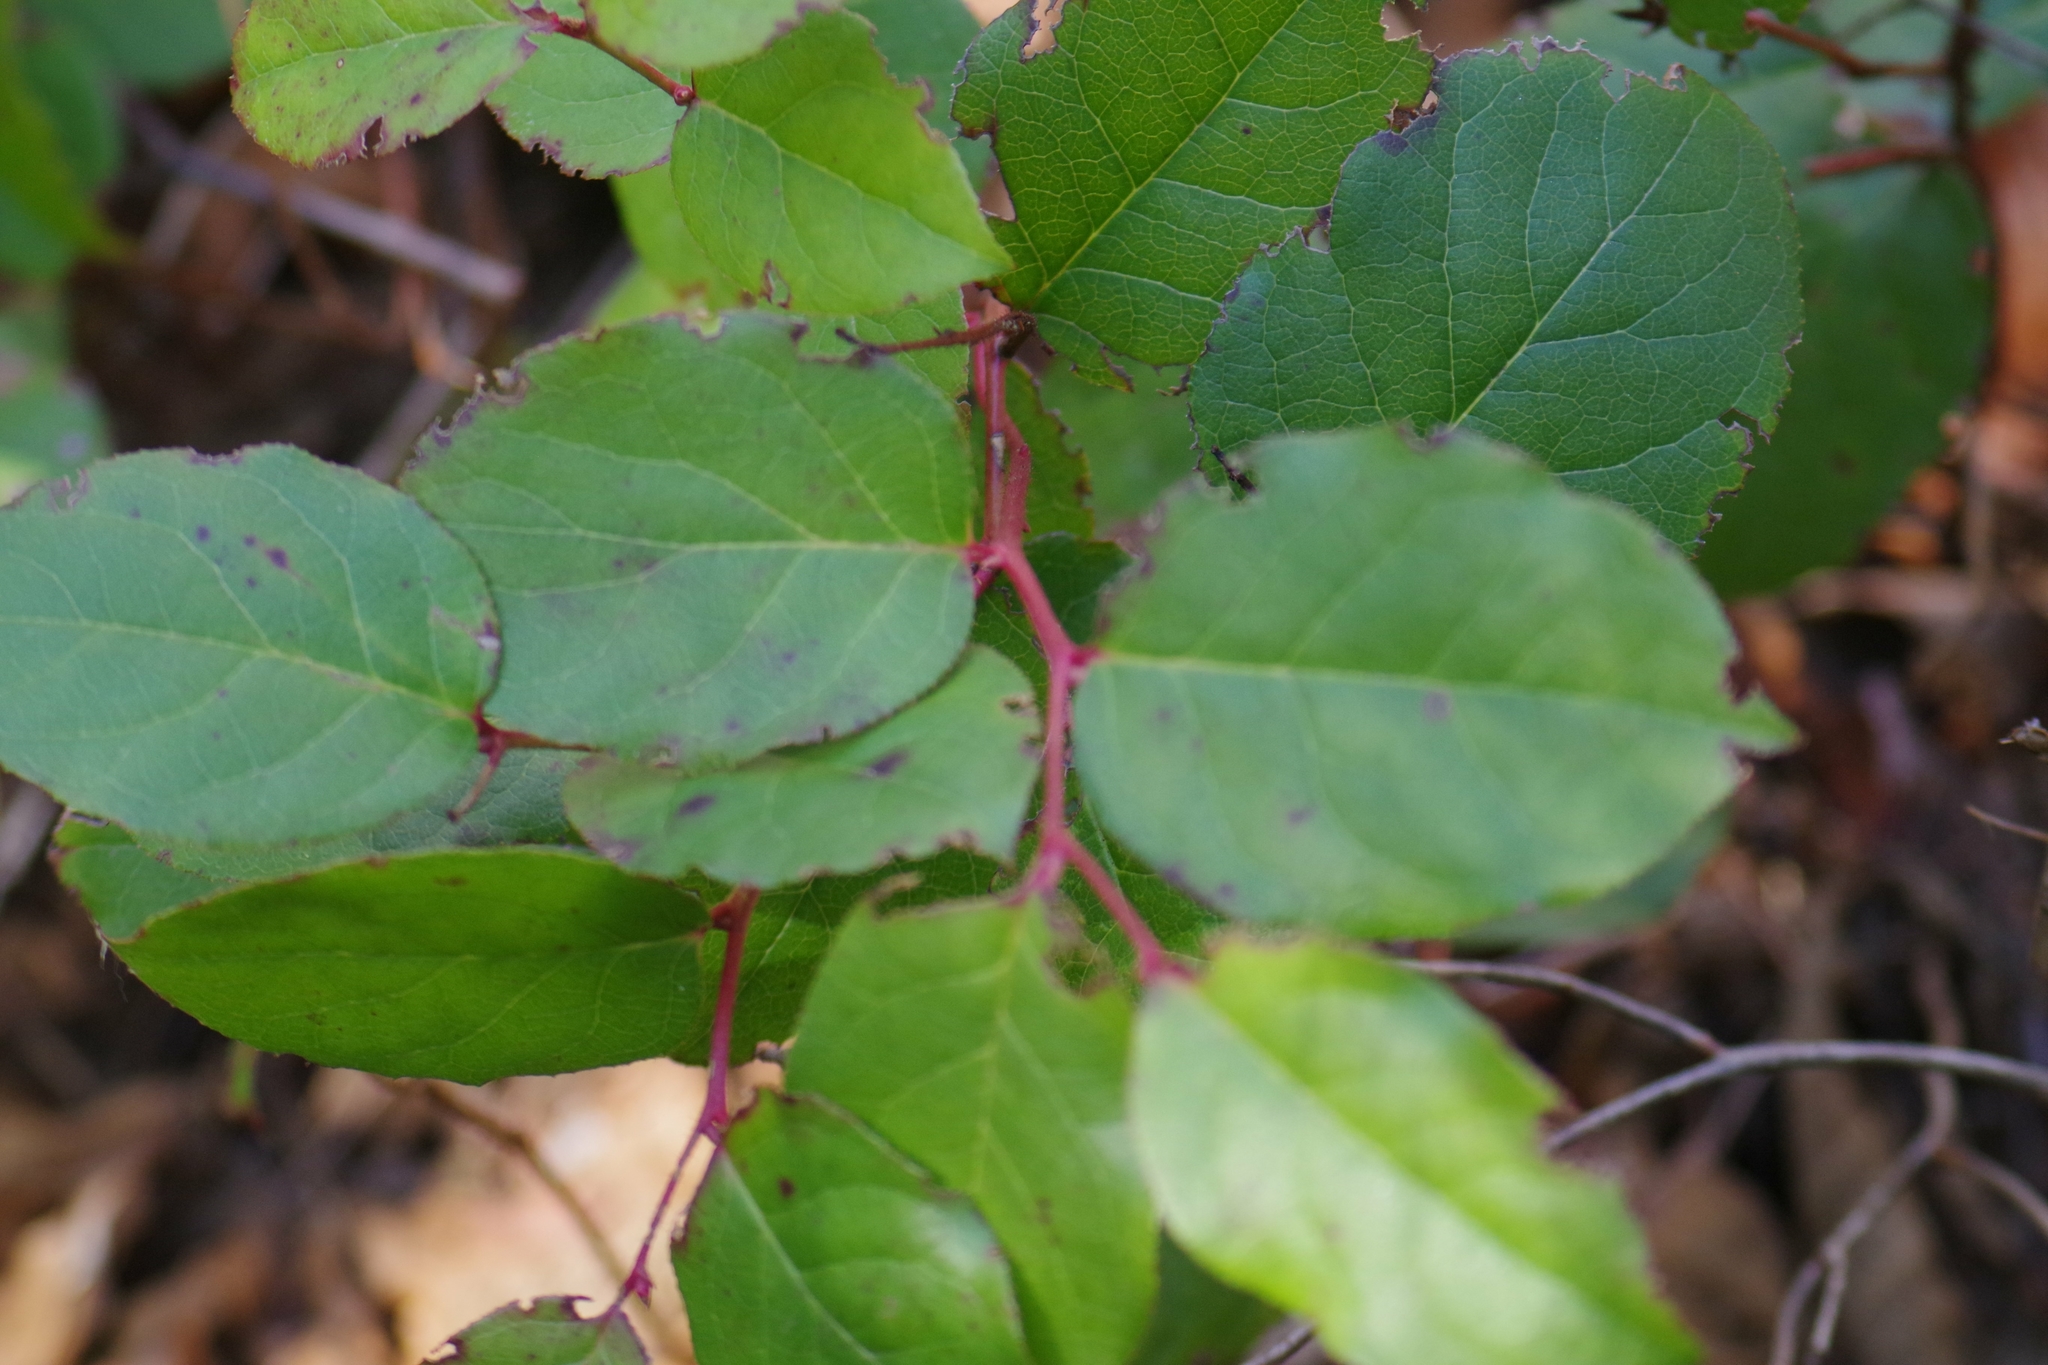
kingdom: Plantae
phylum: Tracheophyta
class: Magnoliopsida
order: Ericales
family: Ericaceae
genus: Gaultheria
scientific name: Gaultheria shallon
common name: Shallon
